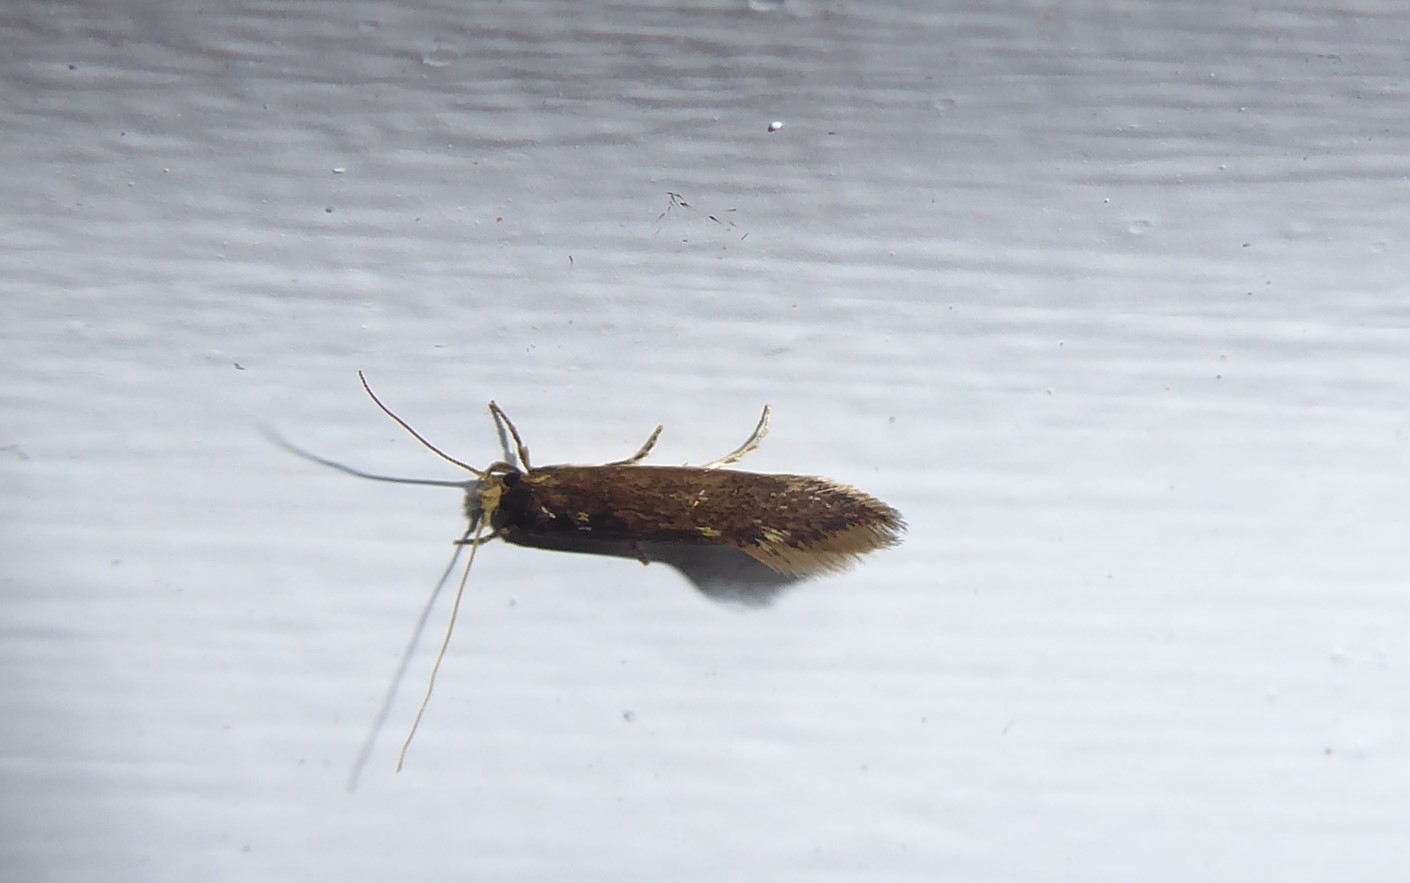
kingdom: Animalia
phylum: Arthropoda
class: Insecta
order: Lepidoptera
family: Tineidae
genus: Opogona
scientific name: Opogona omoscopa
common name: Moth
